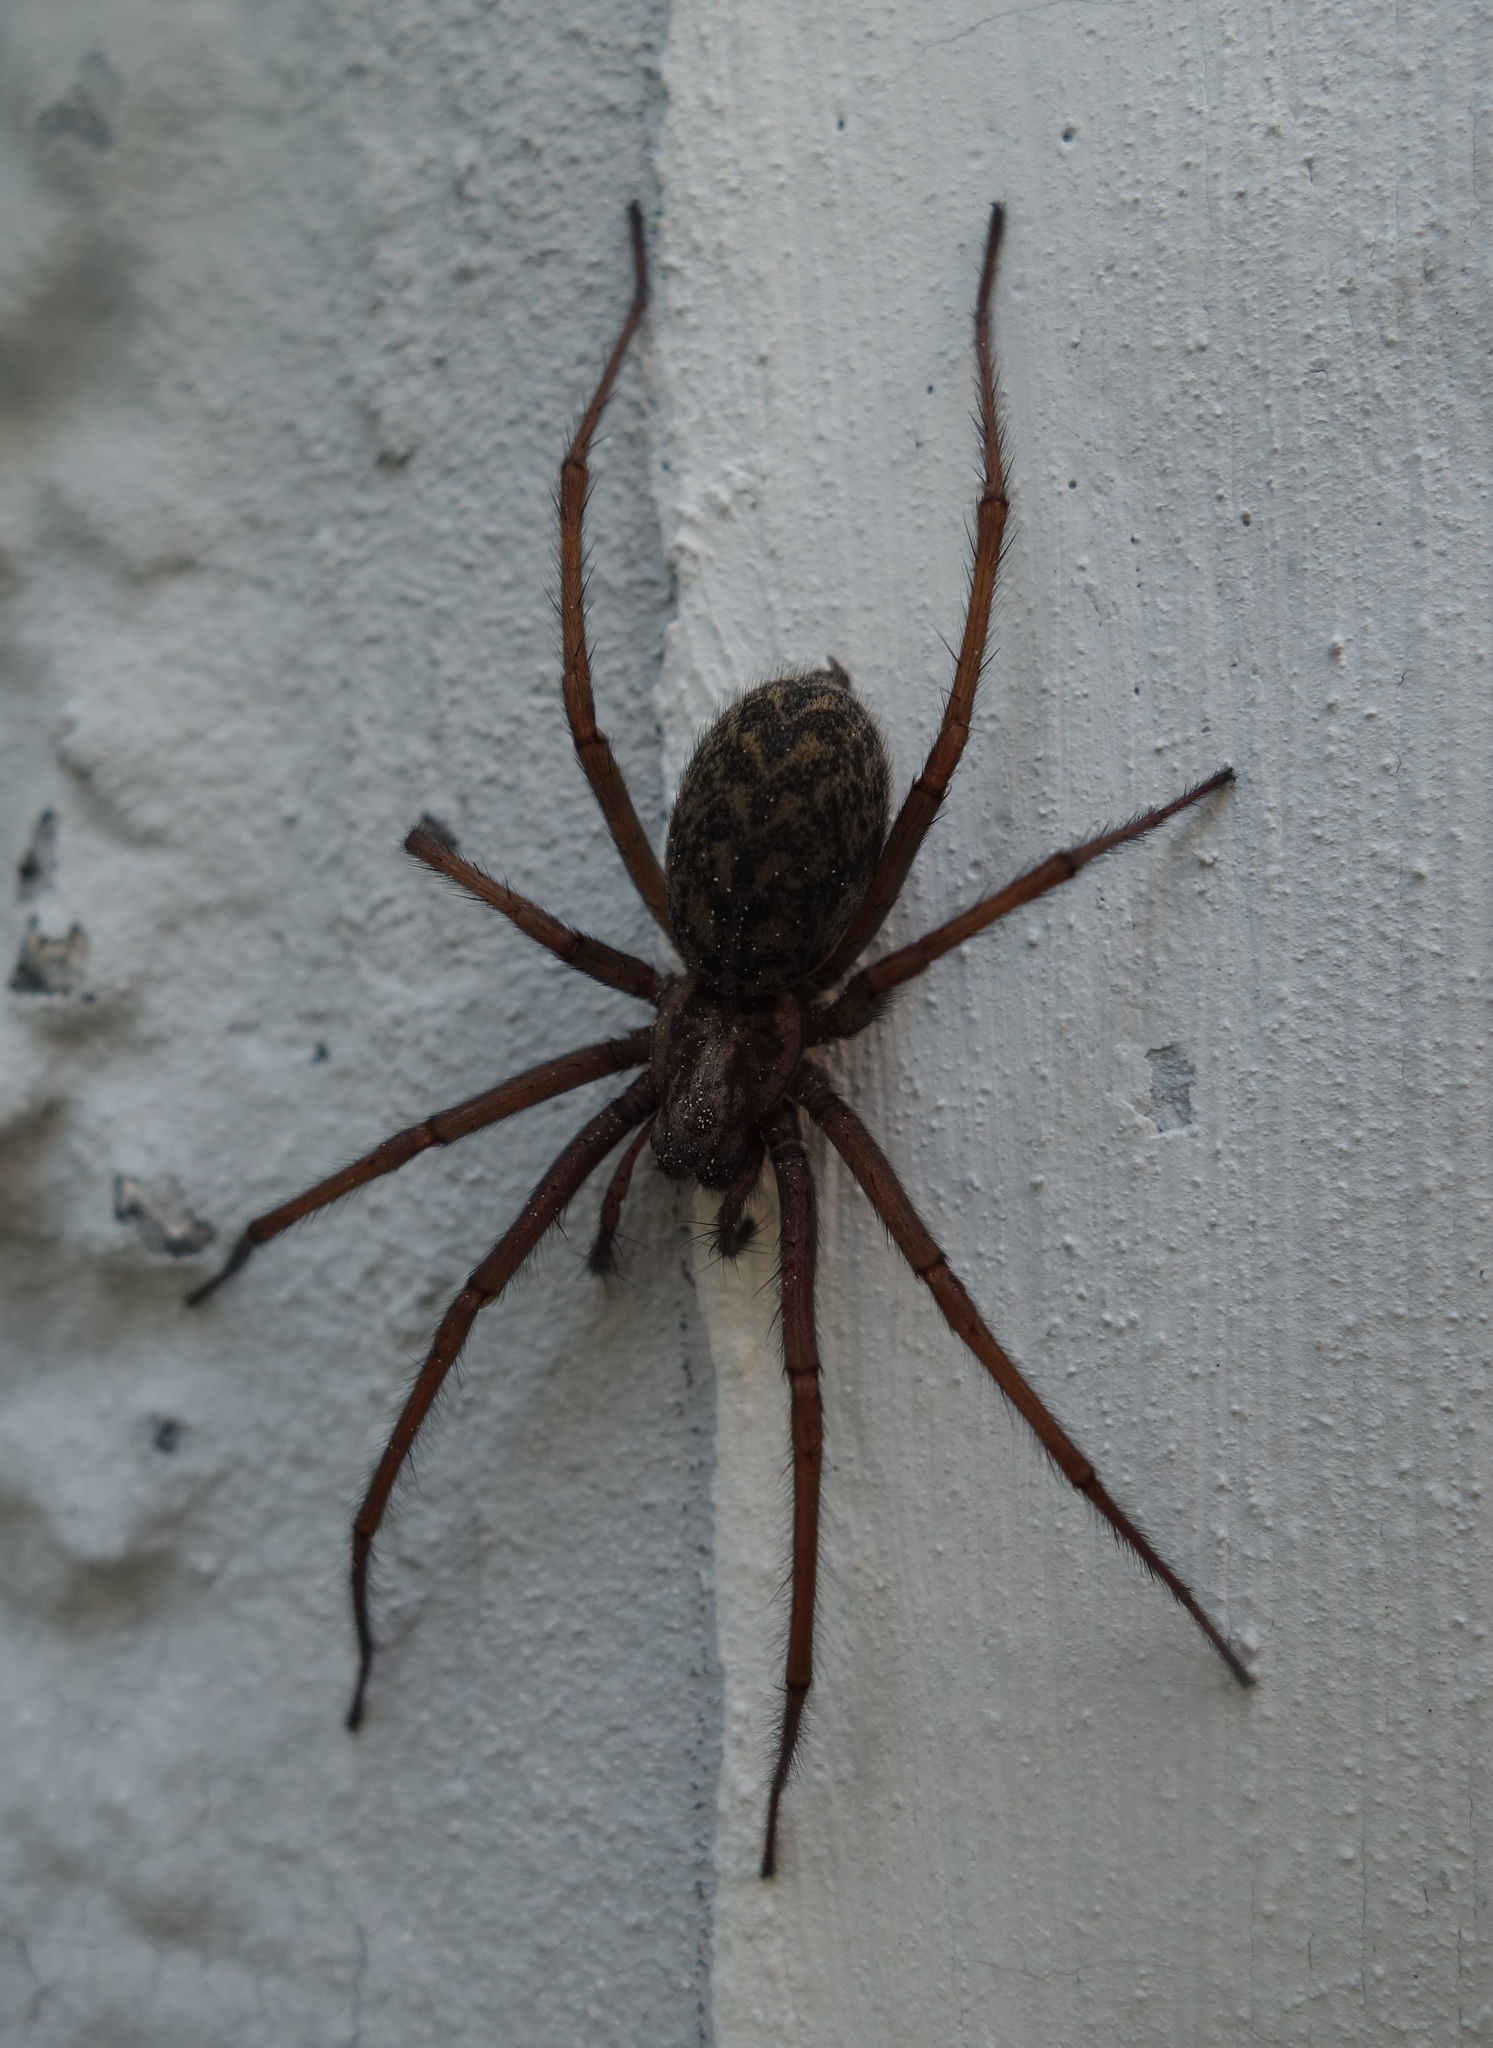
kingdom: Animalia
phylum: Arthropoda
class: Arachnida
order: Araneae
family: Agelenidae
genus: Eratigena
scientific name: Eratigena atrica
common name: Giant house spider
